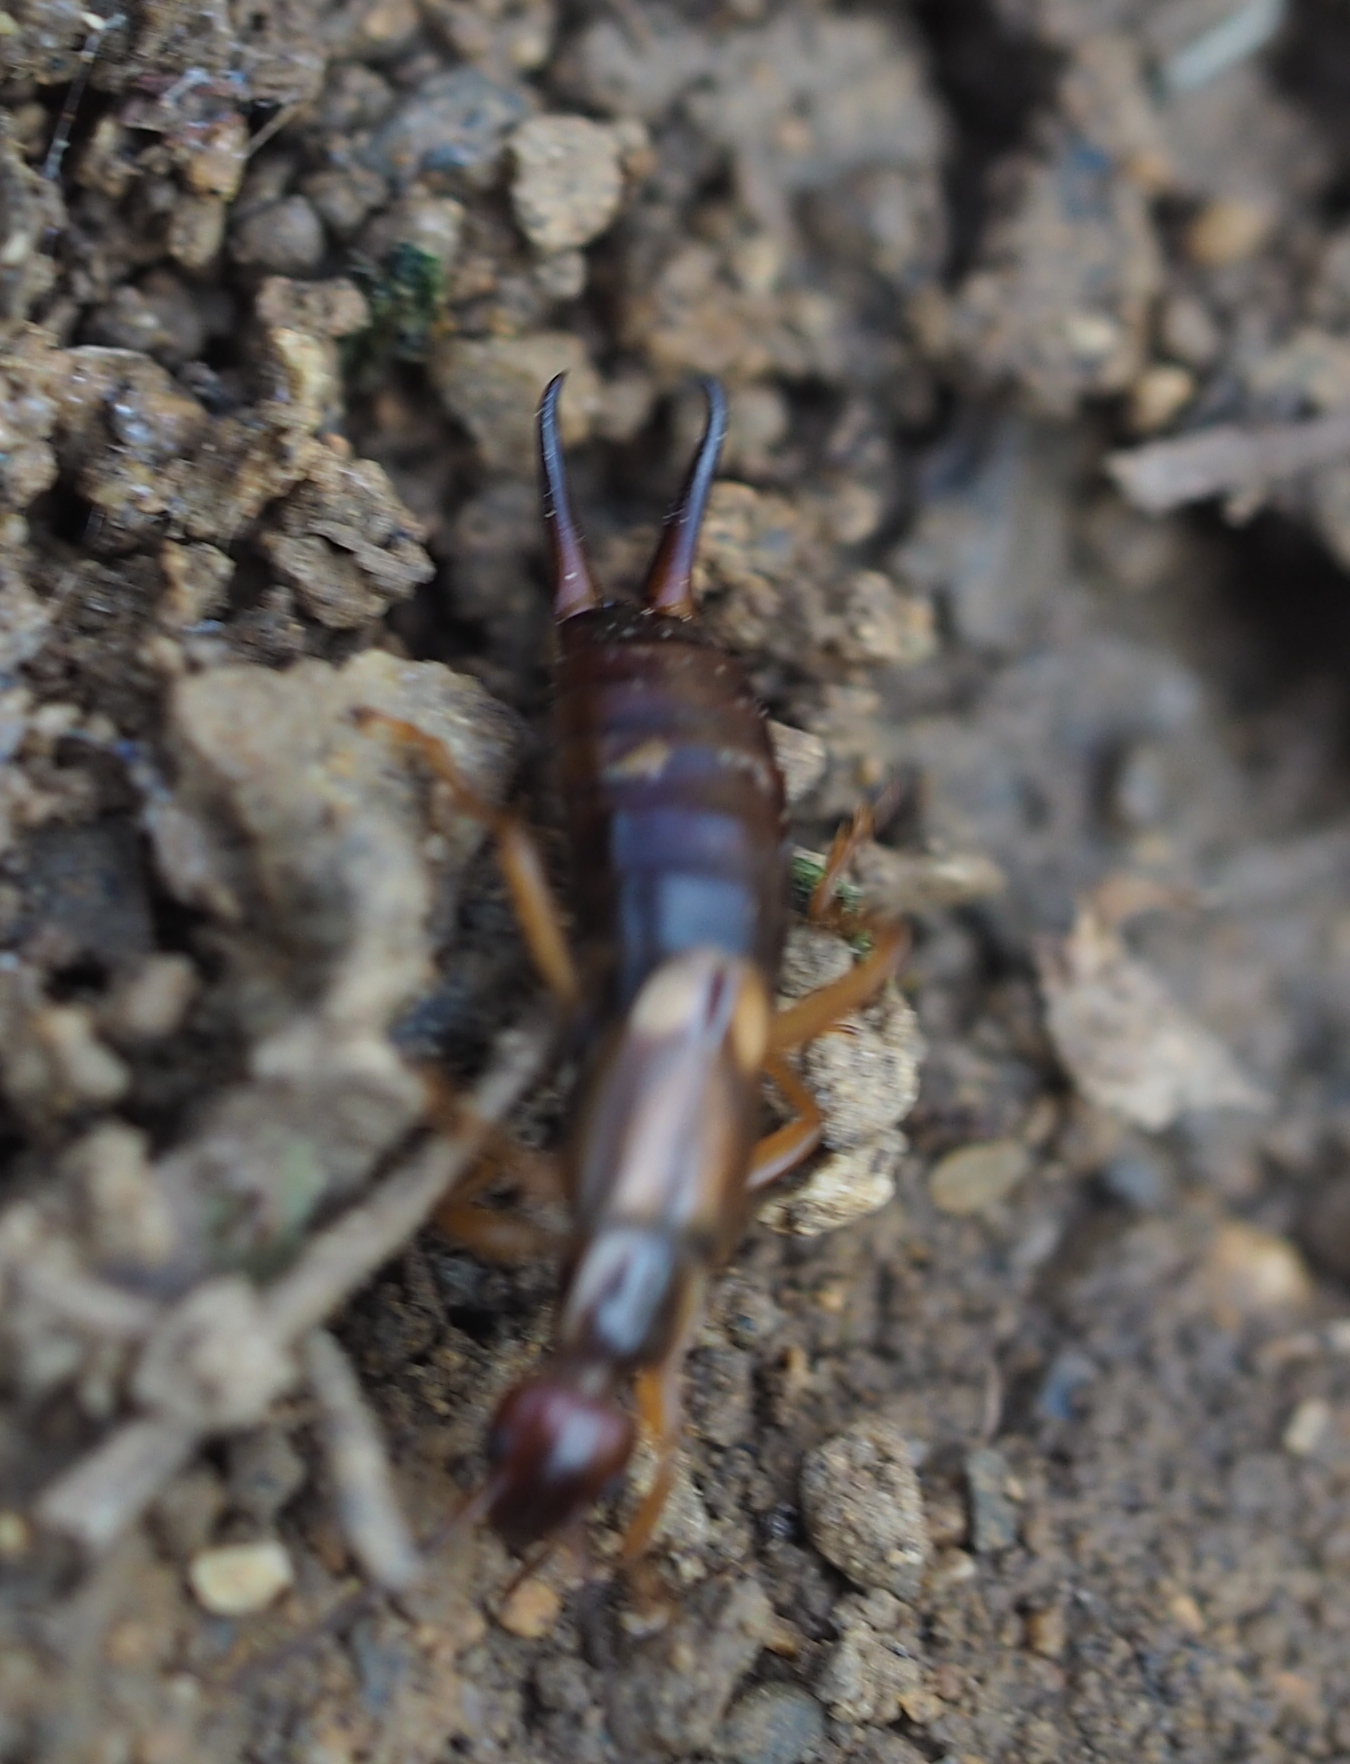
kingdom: Animalia
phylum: Arthropoda
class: Insecta
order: Dermaptera
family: Forficulidae
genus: Forficula
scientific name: Forficula
